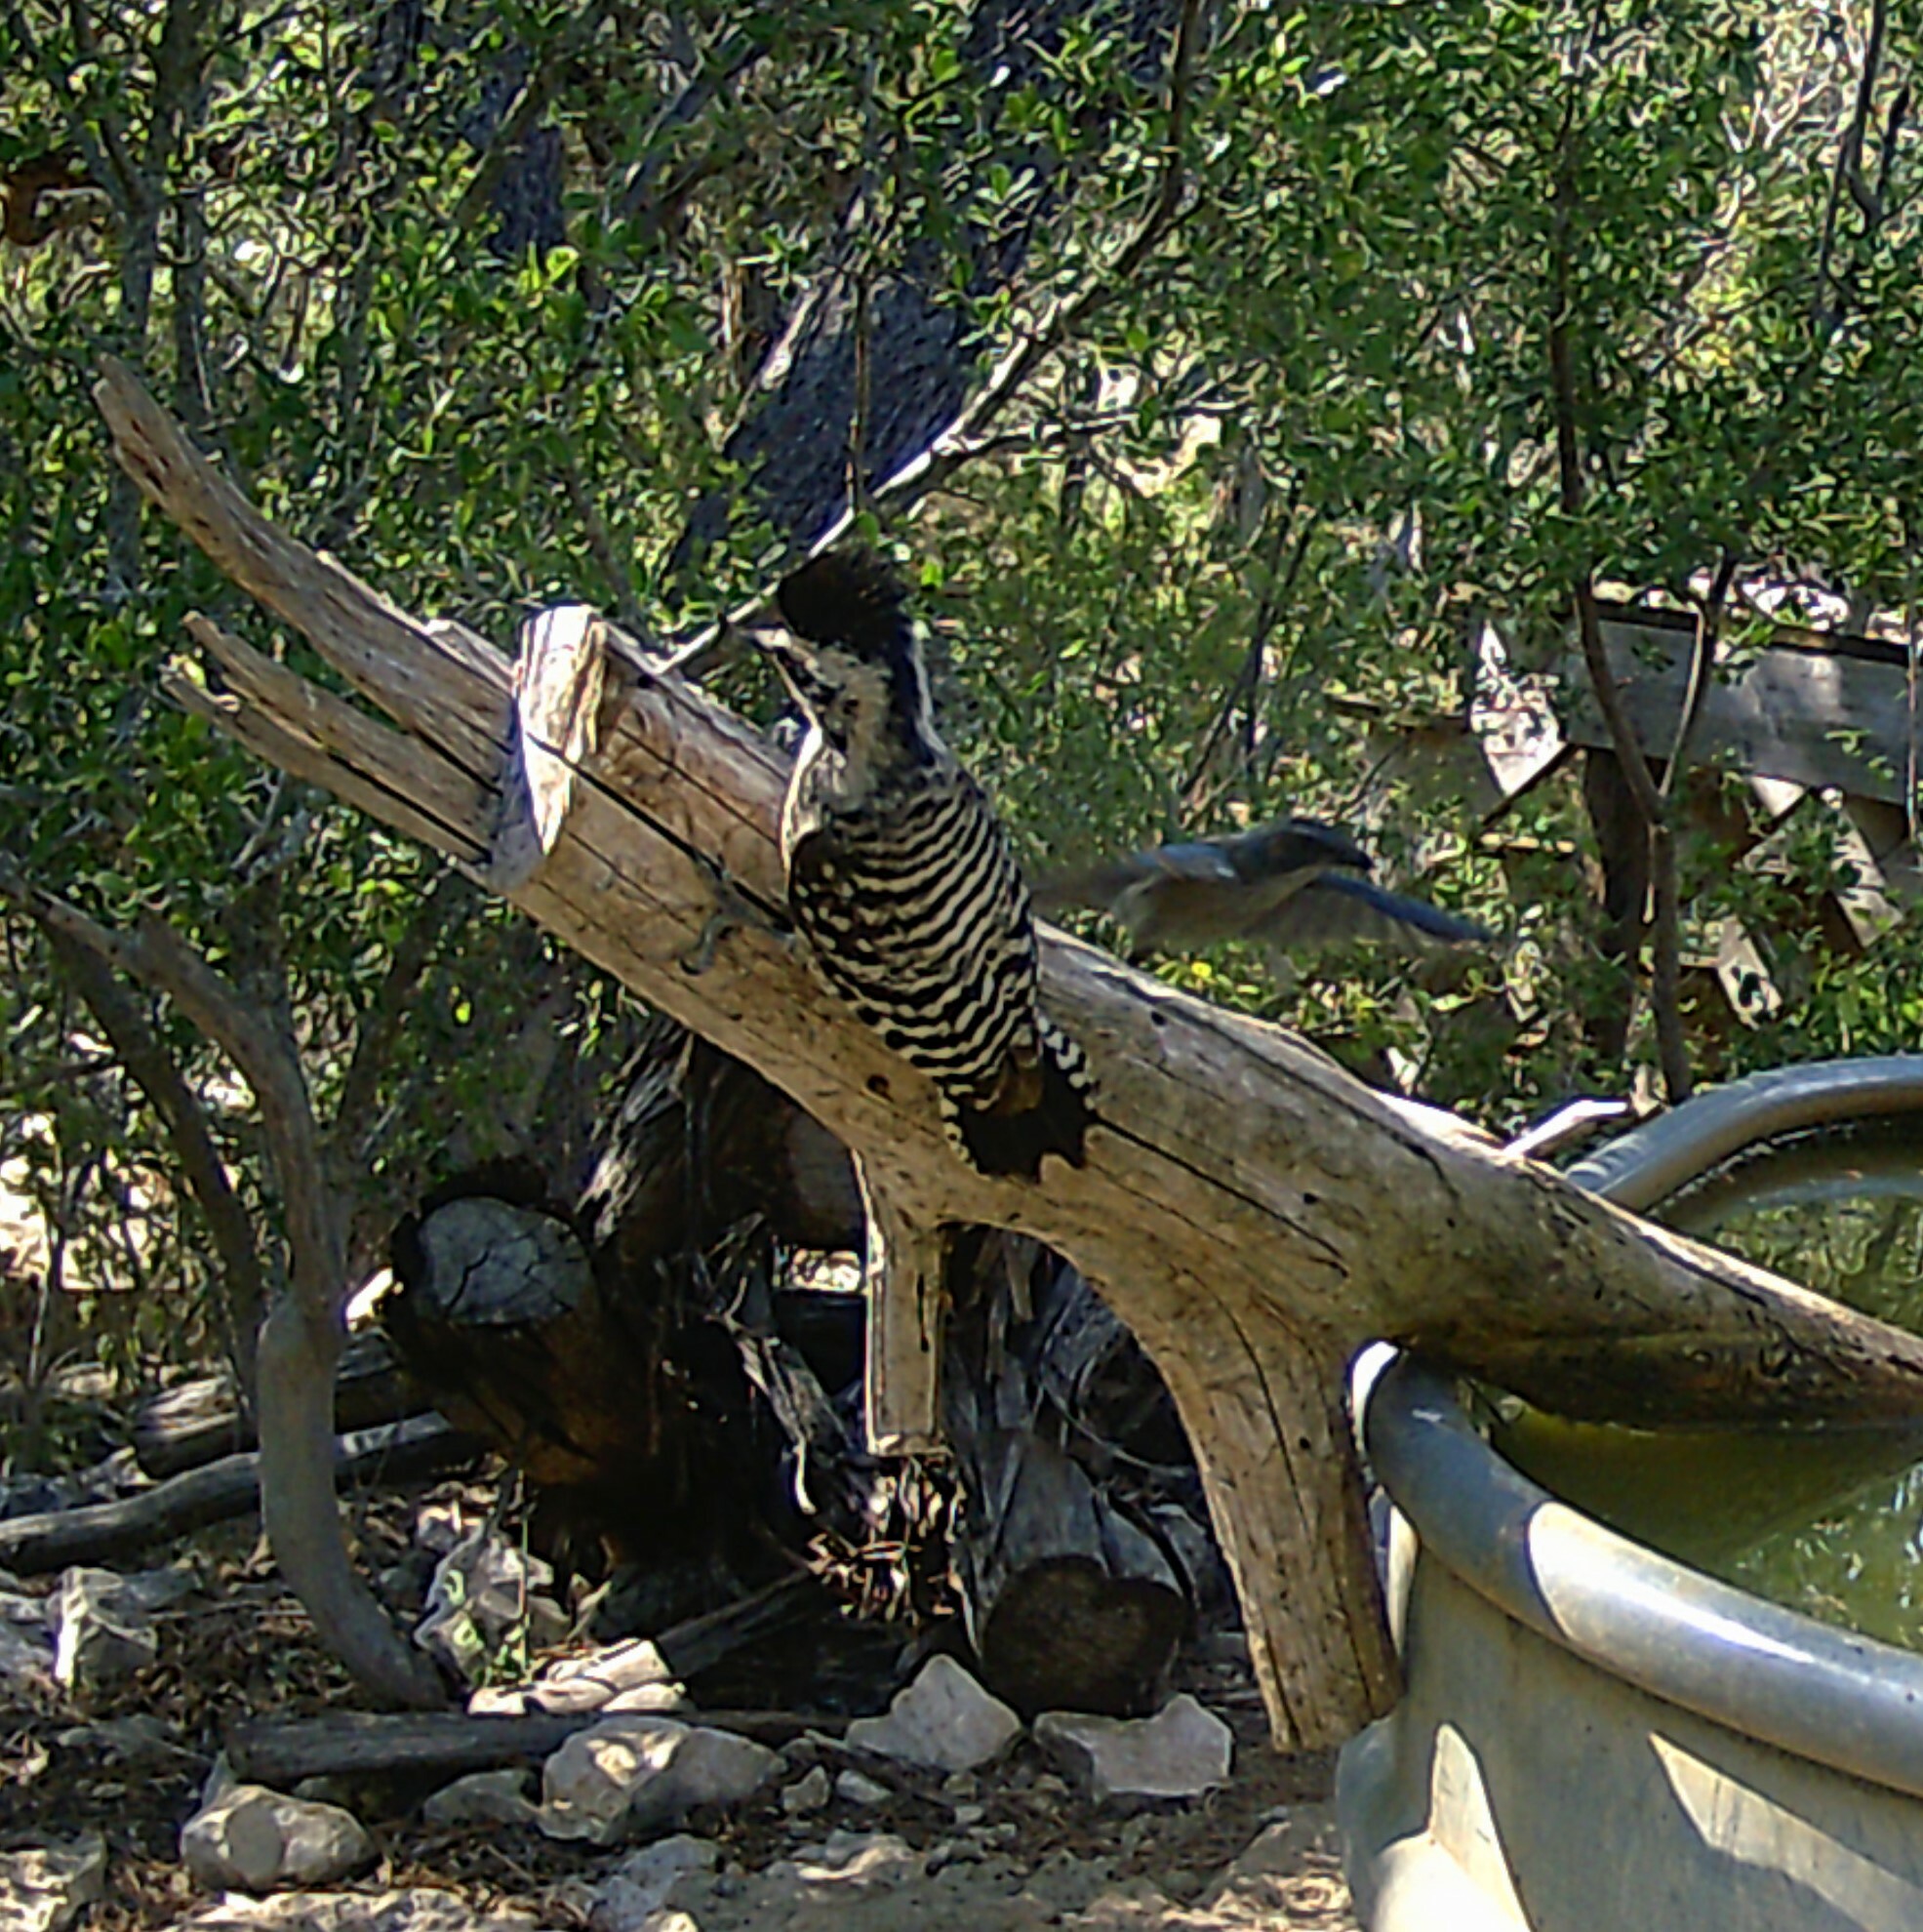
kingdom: Animalia
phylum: Chordata
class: Aves
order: Piciformes
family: Picidae
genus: Dryobates
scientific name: Dryobates scalaris
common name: Ladder-backed woodpecker
